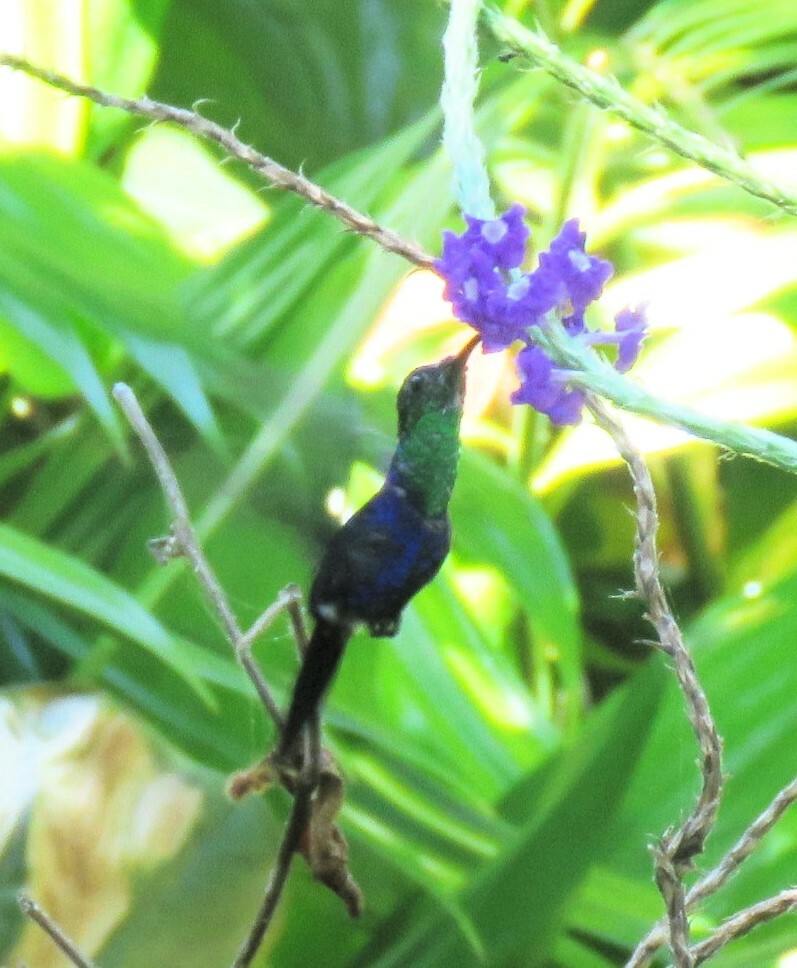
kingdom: Animalia
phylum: Chordata
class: Aves
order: Apodiformes
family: Trochilidae
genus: Thalurania
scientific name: Thalurania colombica
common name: Crowned woodnymph
